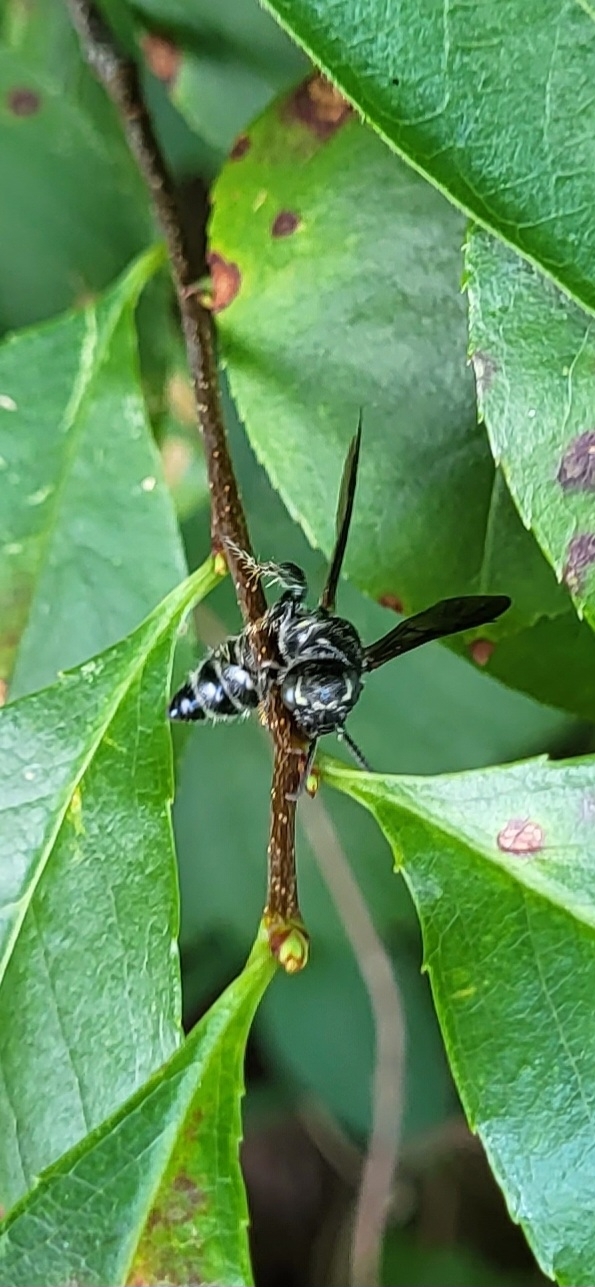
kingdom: Animalia
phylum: Arthropoda
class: Insecta
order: Hymenoptera
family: Tiphiidae
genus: Myzinum
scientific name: Myzinum obscurum
